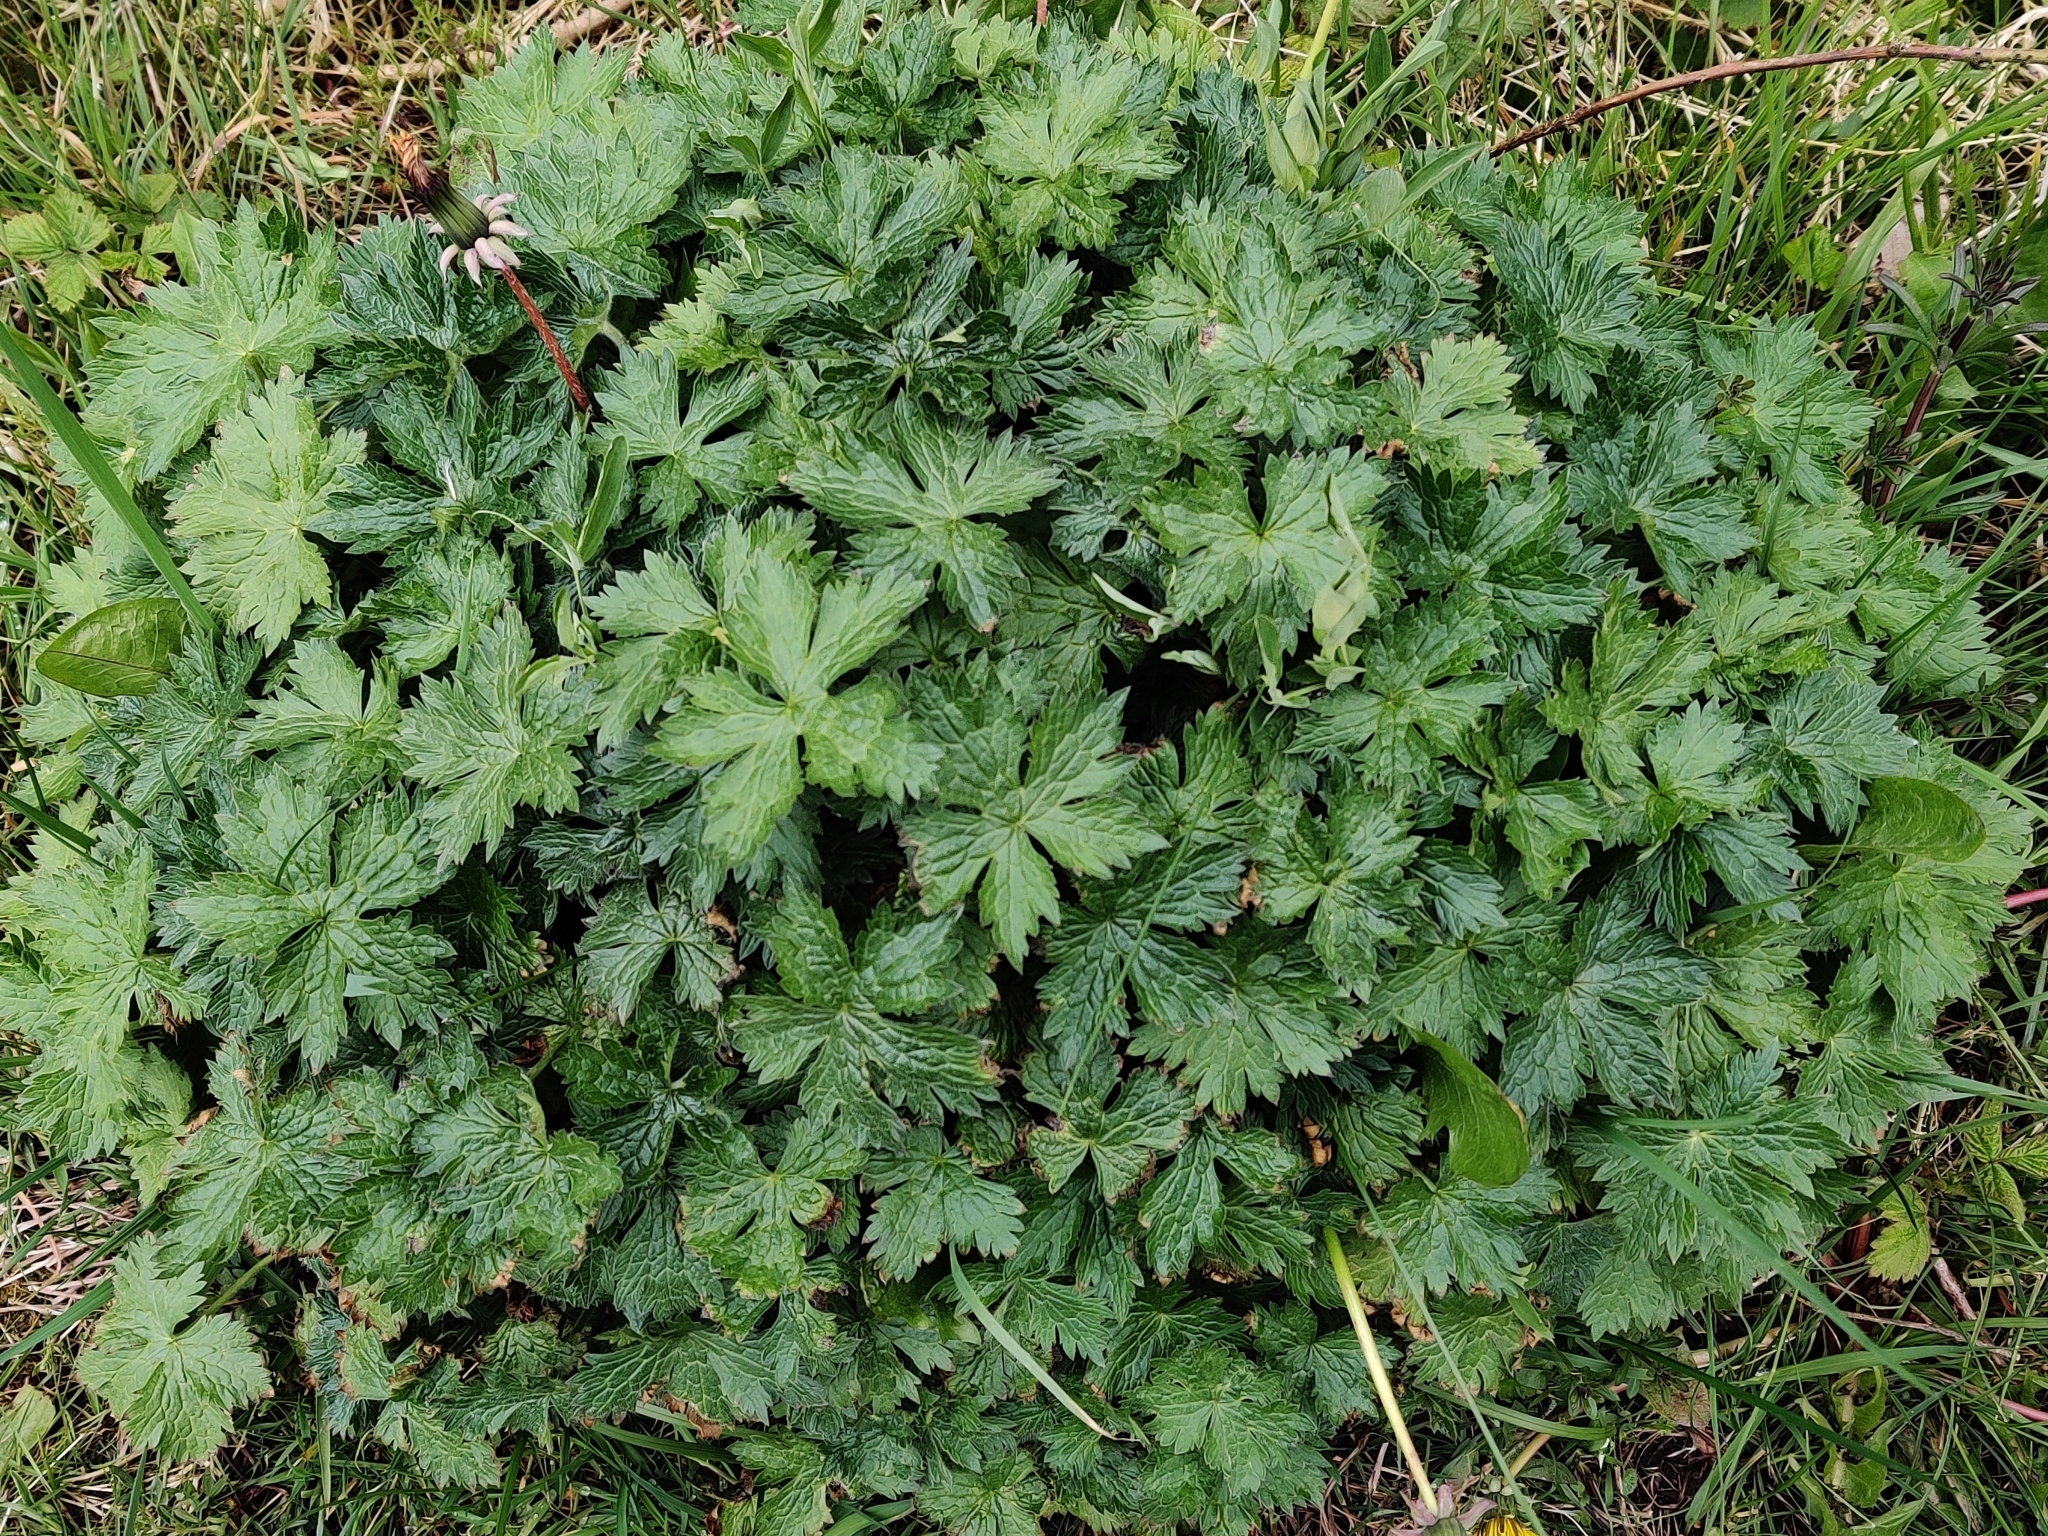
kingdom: Plantae
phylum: Tracheophyta
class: Magnoliopsida
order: Geraniales
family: Geraniaceae
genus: Geranium
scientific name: Geranium sylvaticum
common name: Wood crane's-bill
